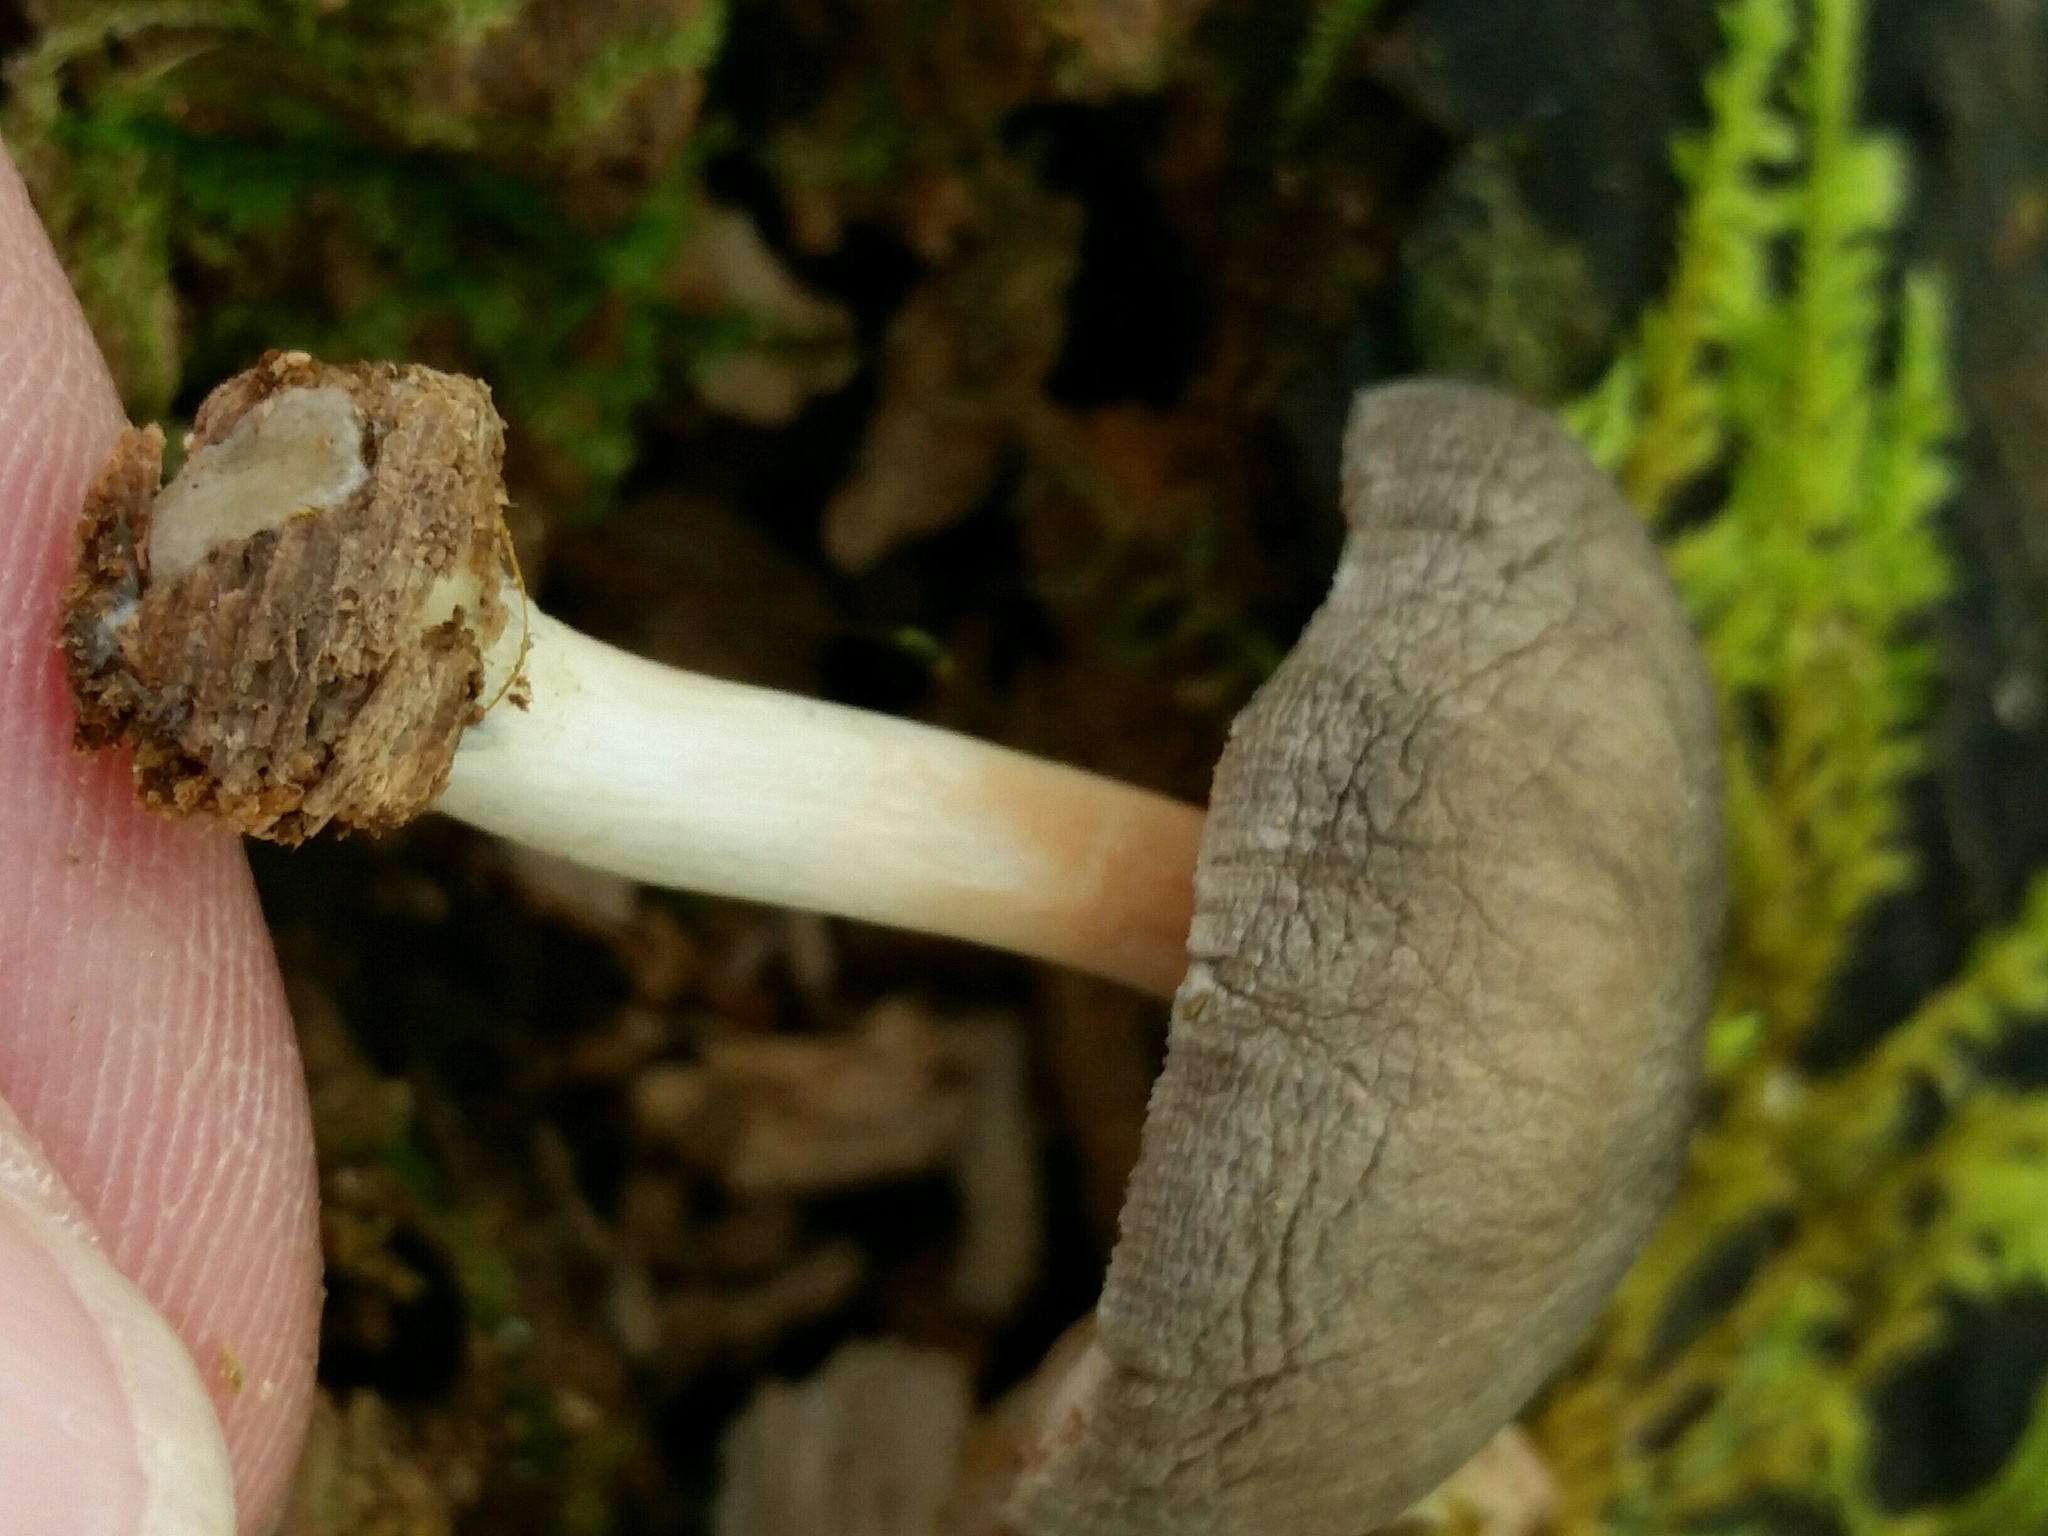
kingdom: Fungi
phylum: Basidiomycota
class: Agaricomycetes
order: Agaricales
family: Pluteaceae
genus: Pluteus
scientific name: Pluteus americanus
